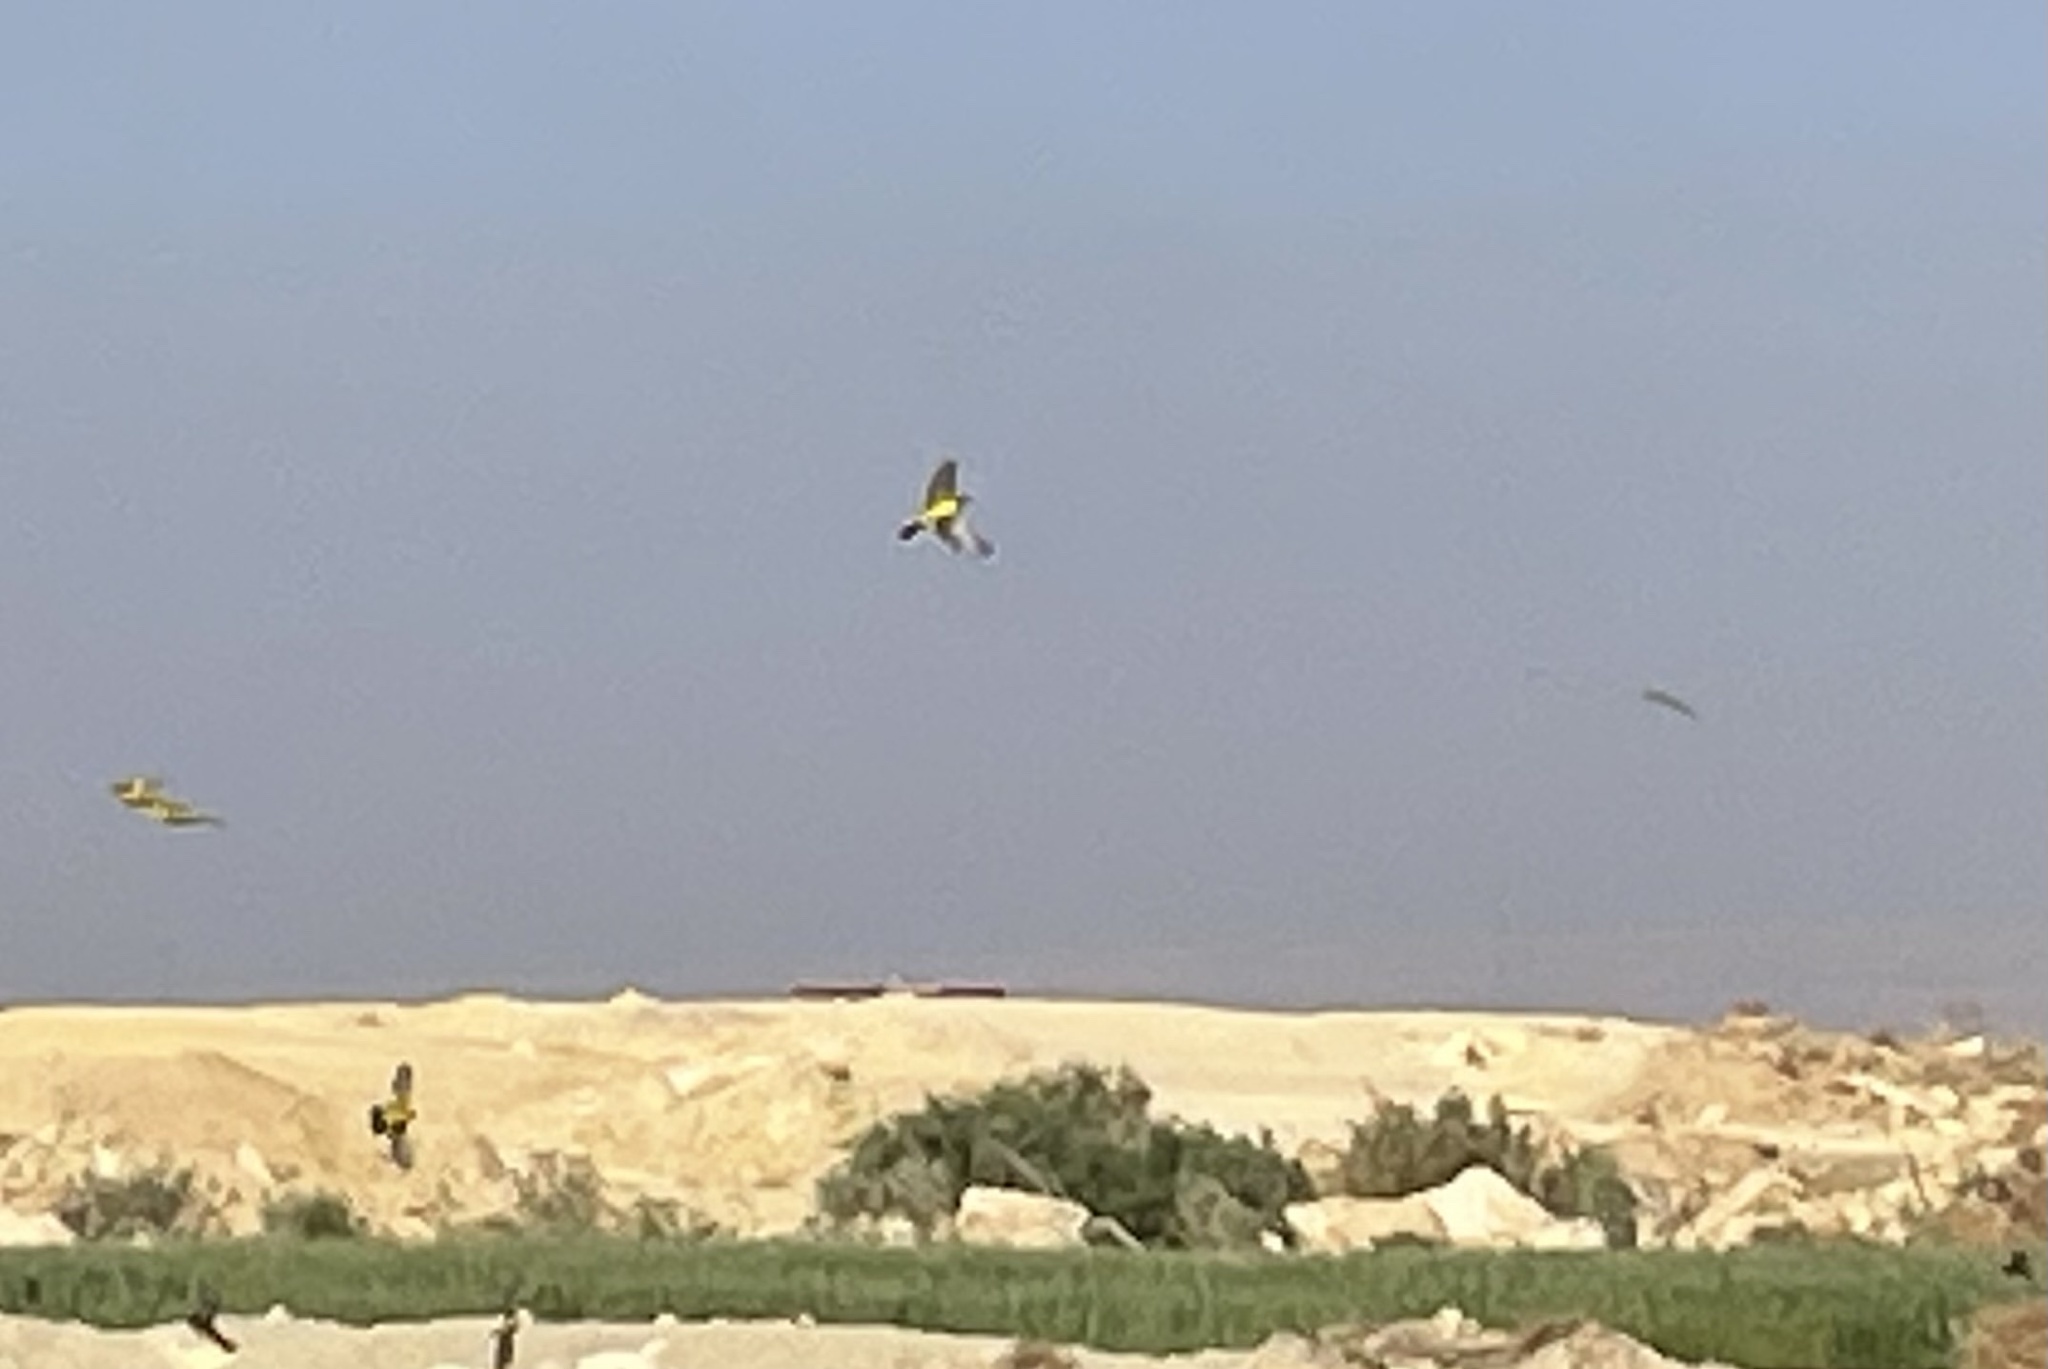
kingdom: Animalia
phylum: Chordata
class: Aves
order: Passeriformes
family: Motacillidae
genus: Motacilla
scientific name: Motacilla flava
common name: Western yellow wagtail
